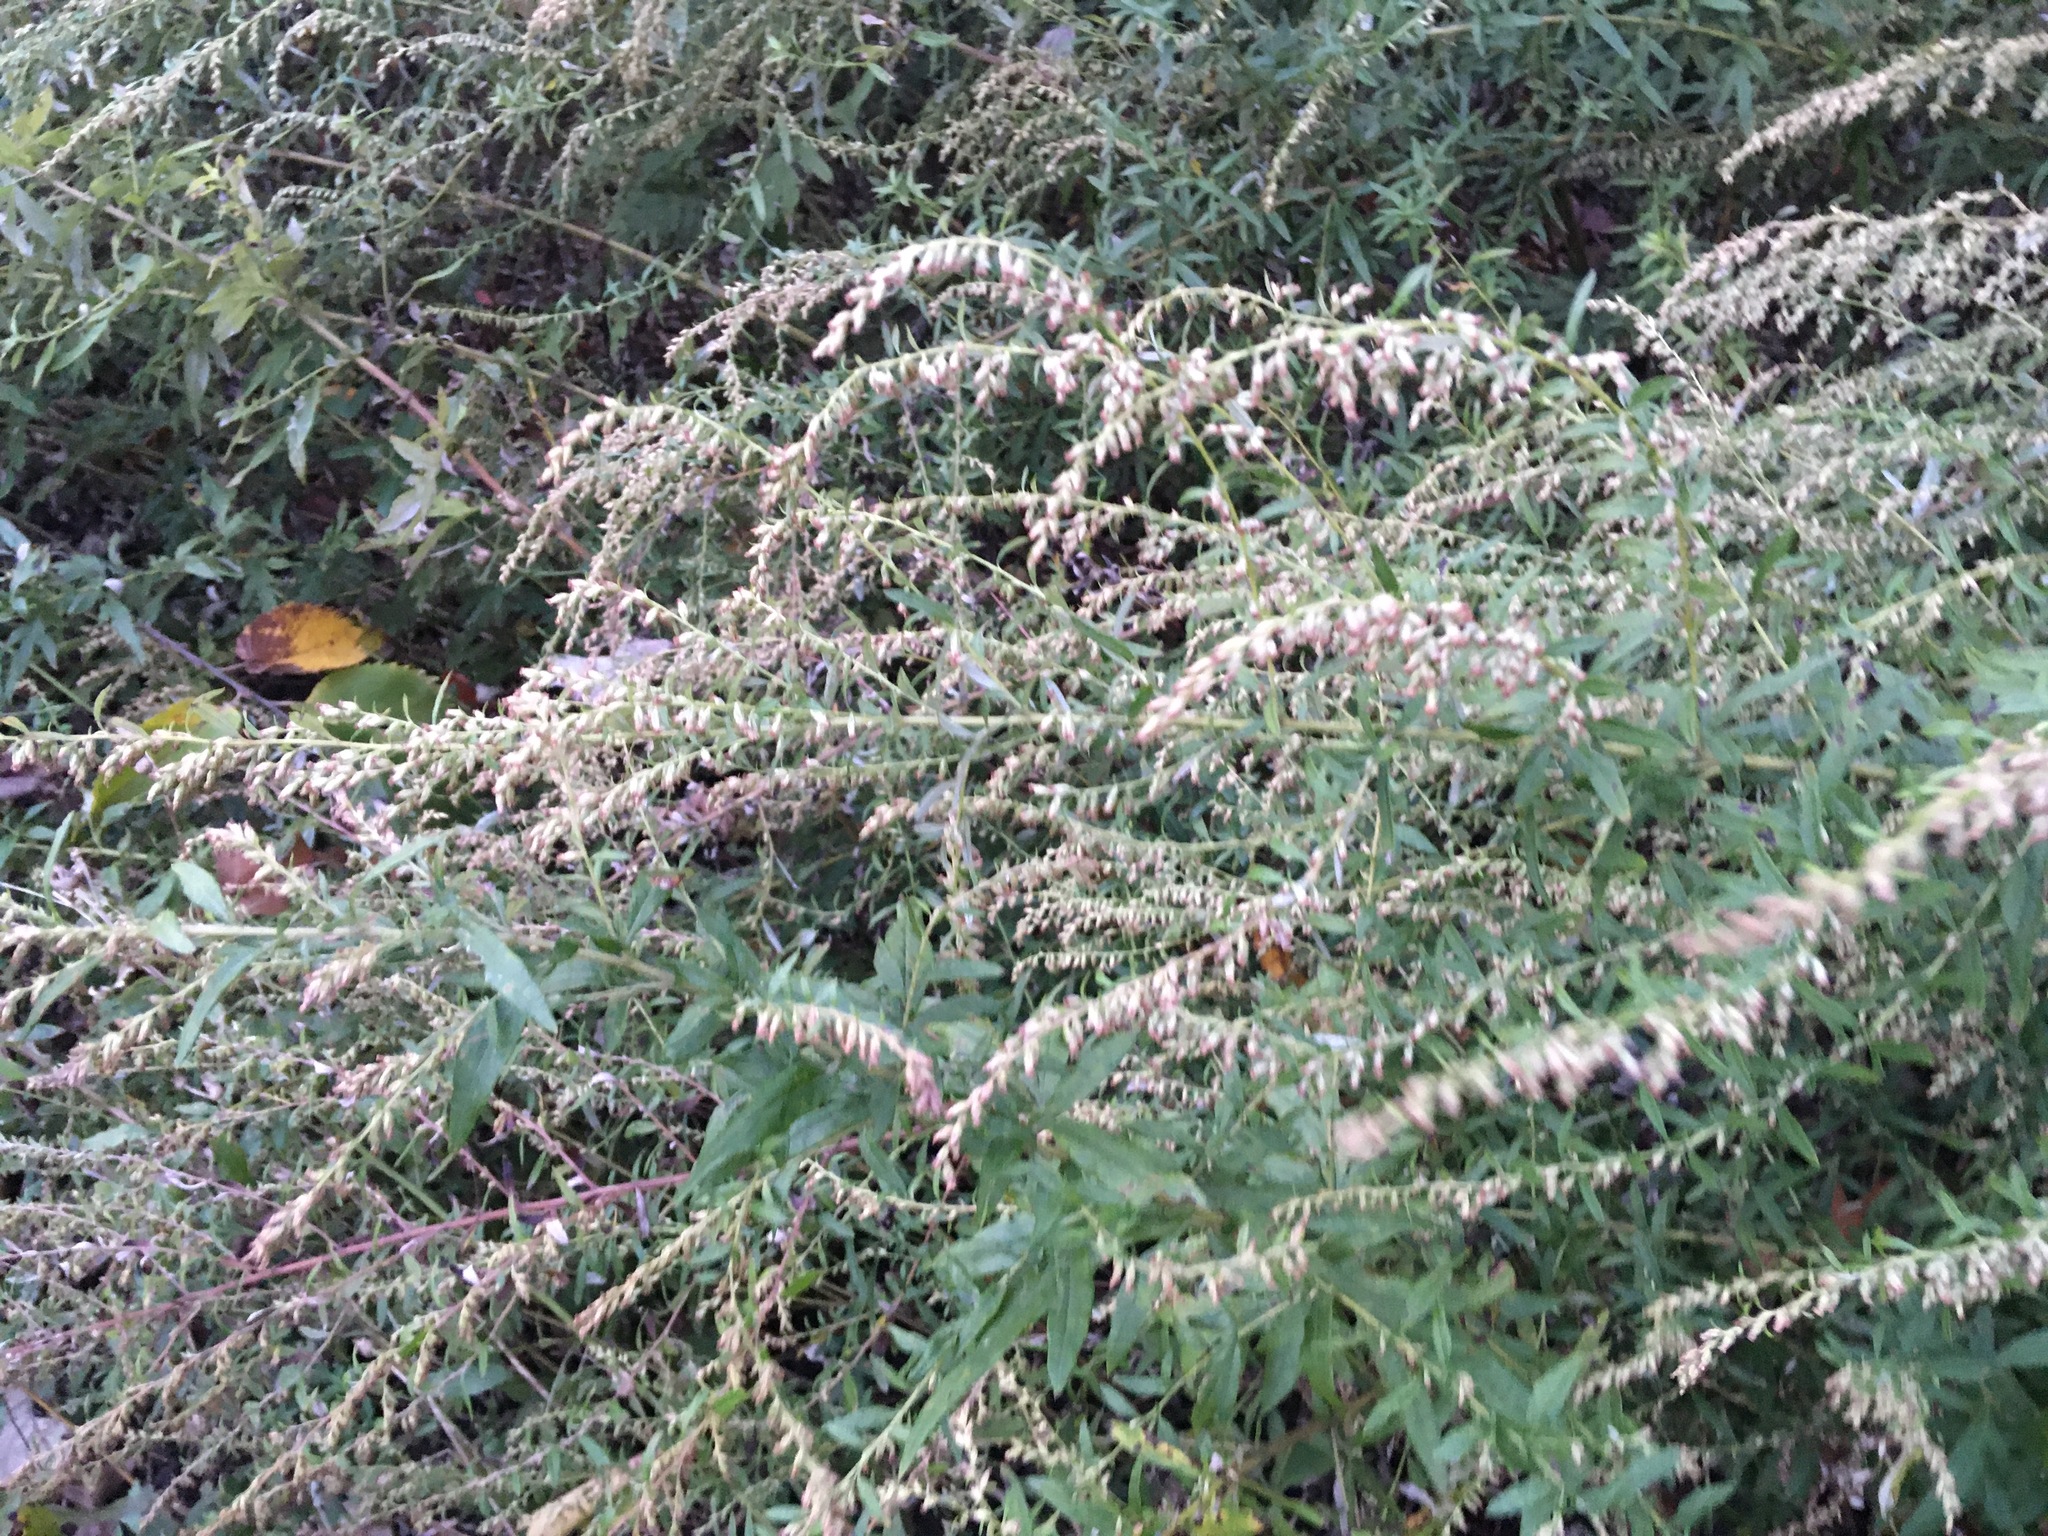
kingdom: Plantae
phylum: Tracheophyta
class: Magnoliopsida
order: Asterales
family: Asteraceae
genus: Artemisia
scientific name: Artemisia vulgaris
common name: Mugwort
